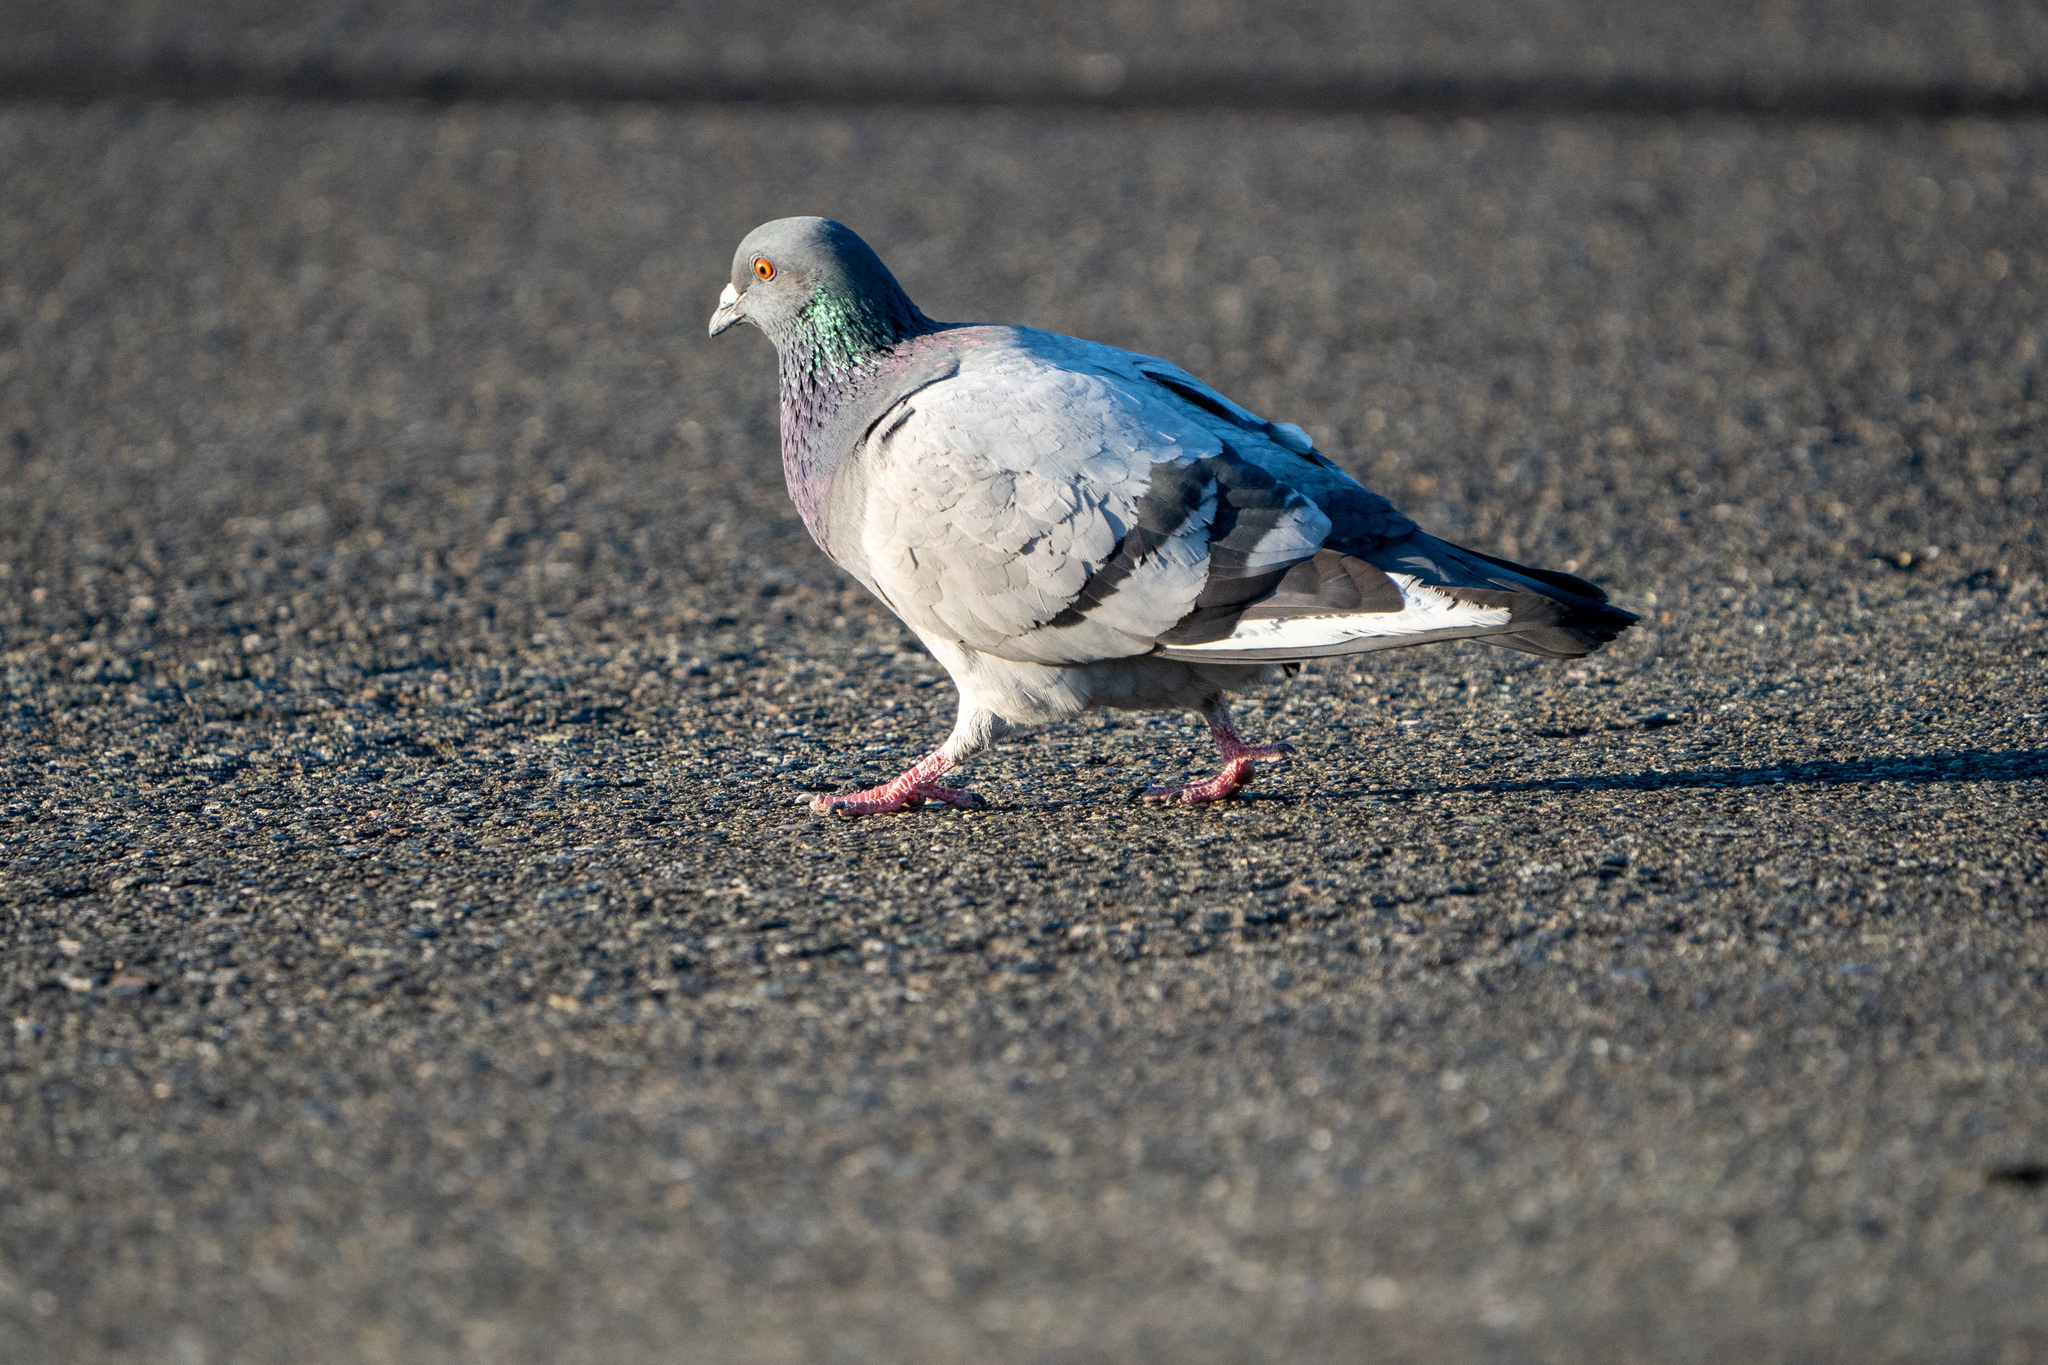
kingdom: Animalia
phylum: Chordata
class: Aves
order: Columbiformes
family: Columbidae
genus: Columba
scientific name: Columba livia
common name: Rock pigeon
